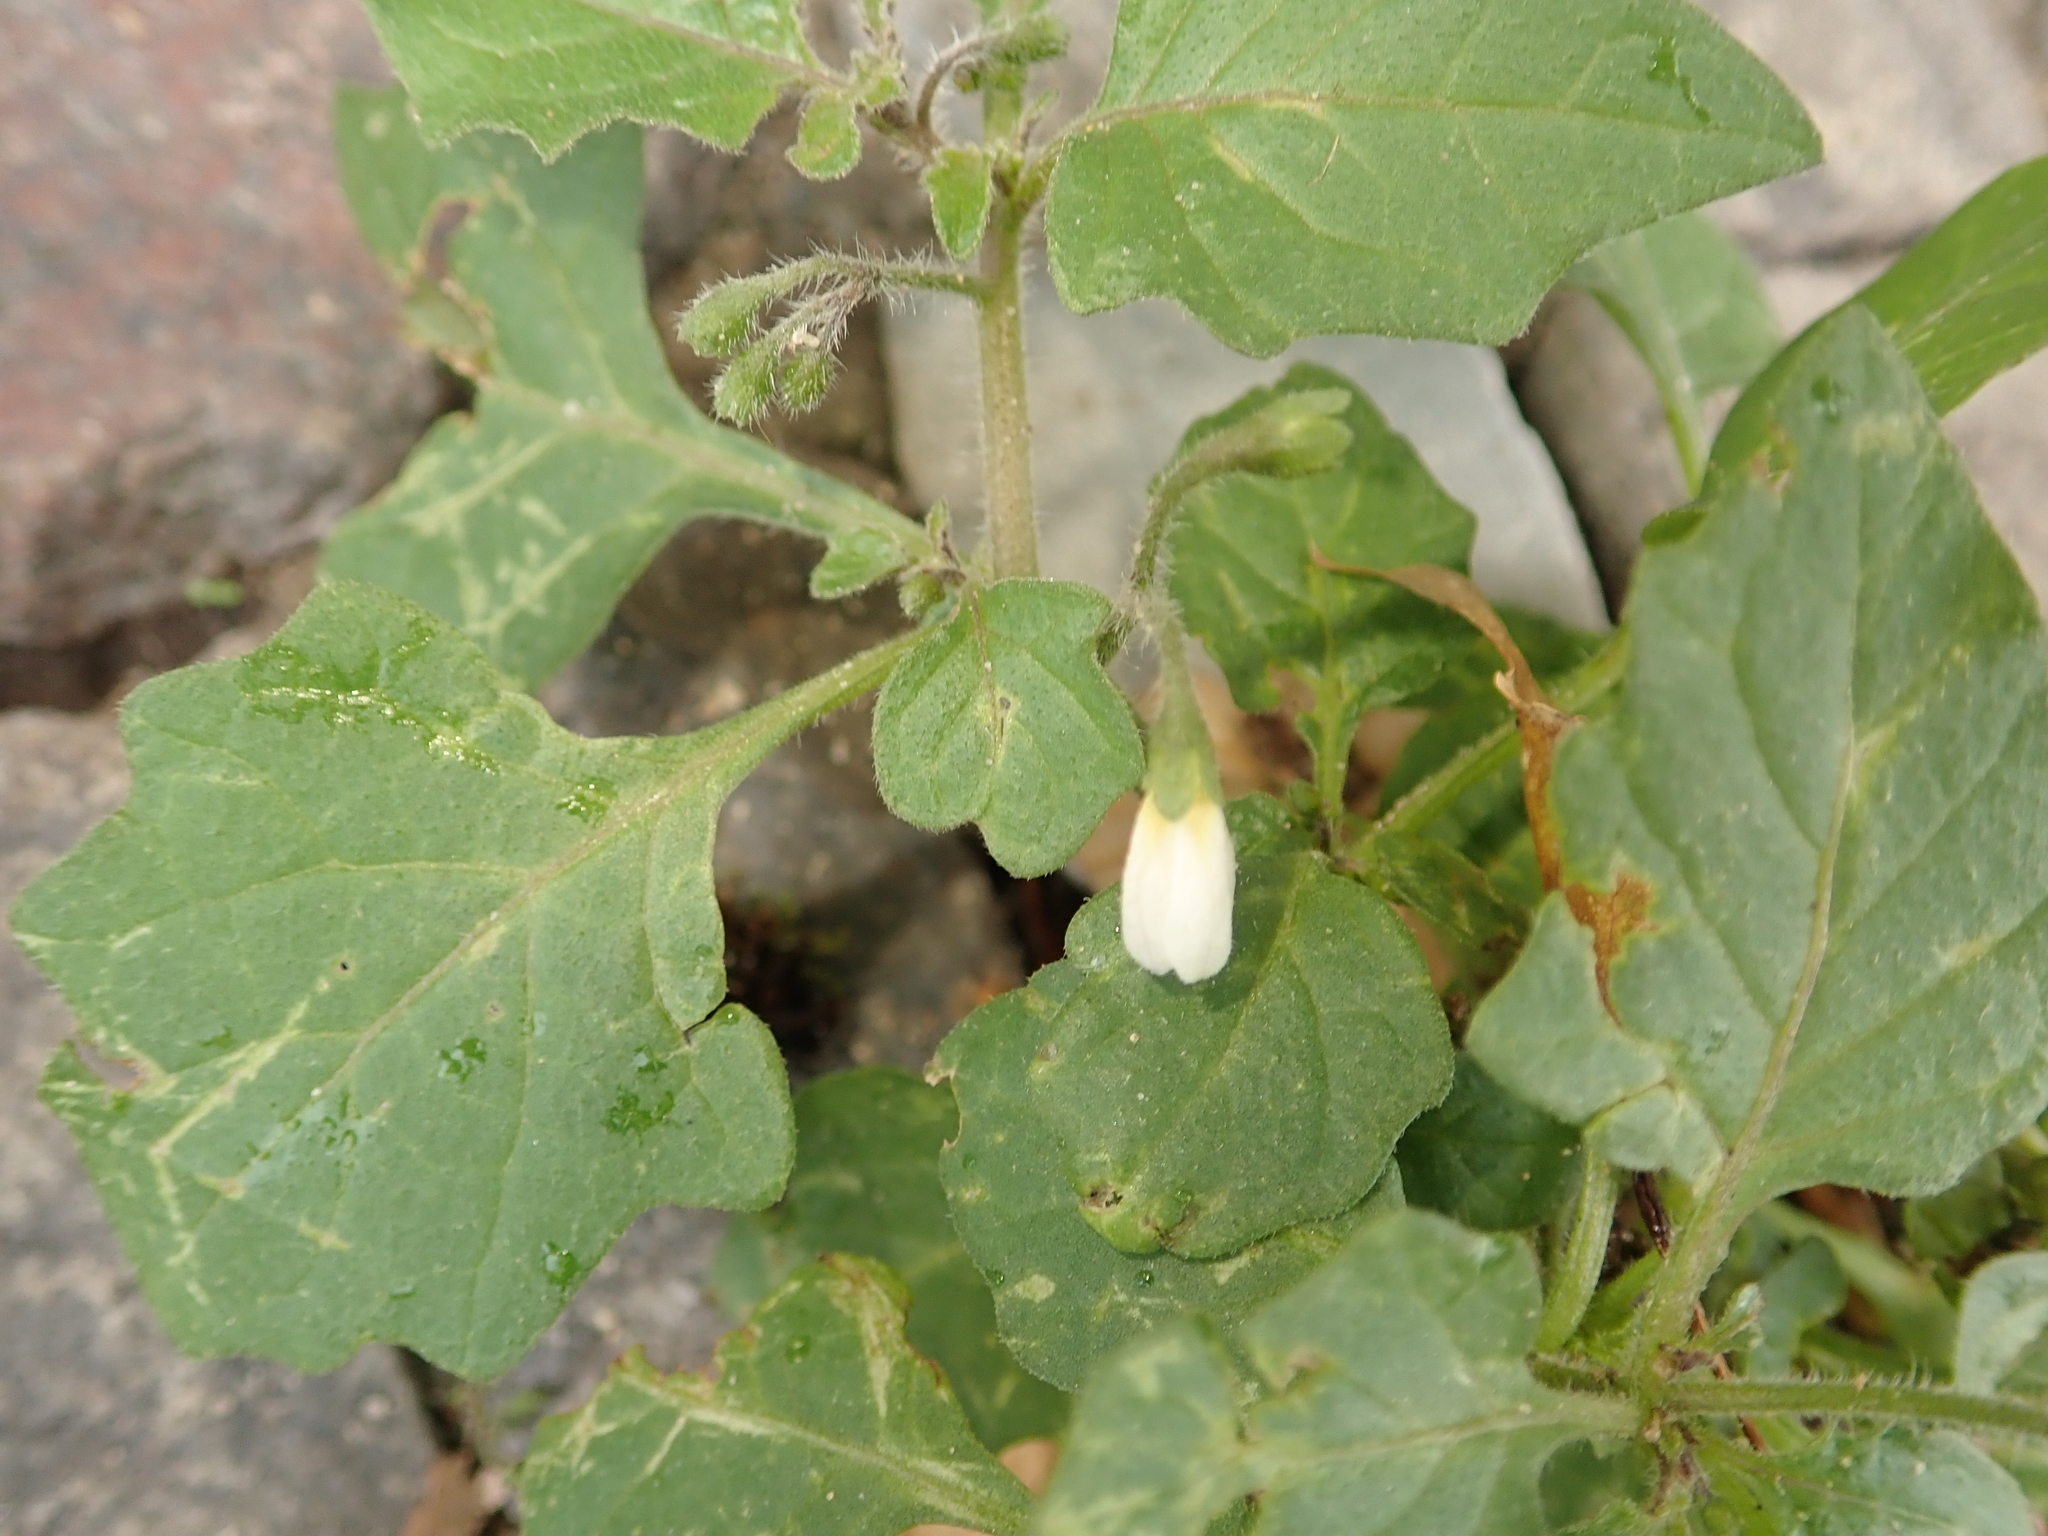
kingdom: Plantae
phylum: Tracheophyta
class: Magnoliopsida
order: Solanales
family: Solanaceae
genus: Solanum
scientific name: Solanum nigrum
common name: Black nightshade
